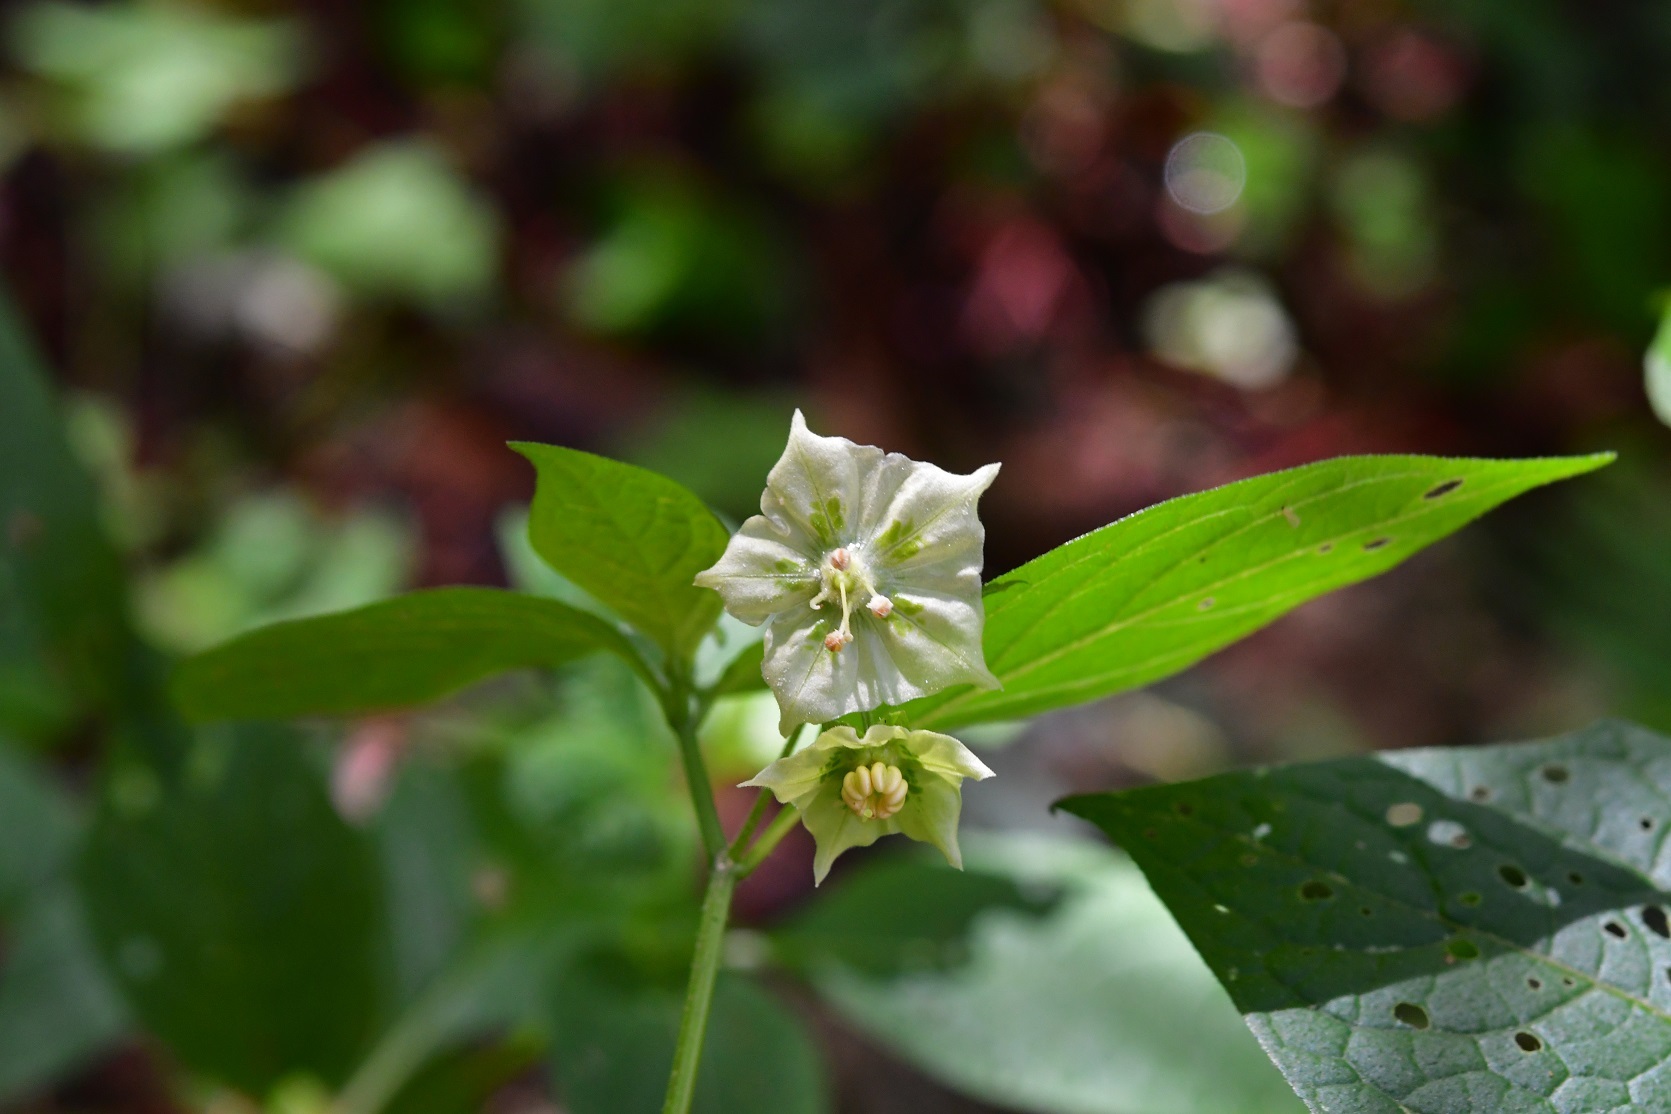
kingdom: Plantae
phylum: Tracheophyta
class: Magnoliopsida
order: Solanales
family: Solanaceae
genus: Jaltomata
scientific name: Jaltomata procumbens
